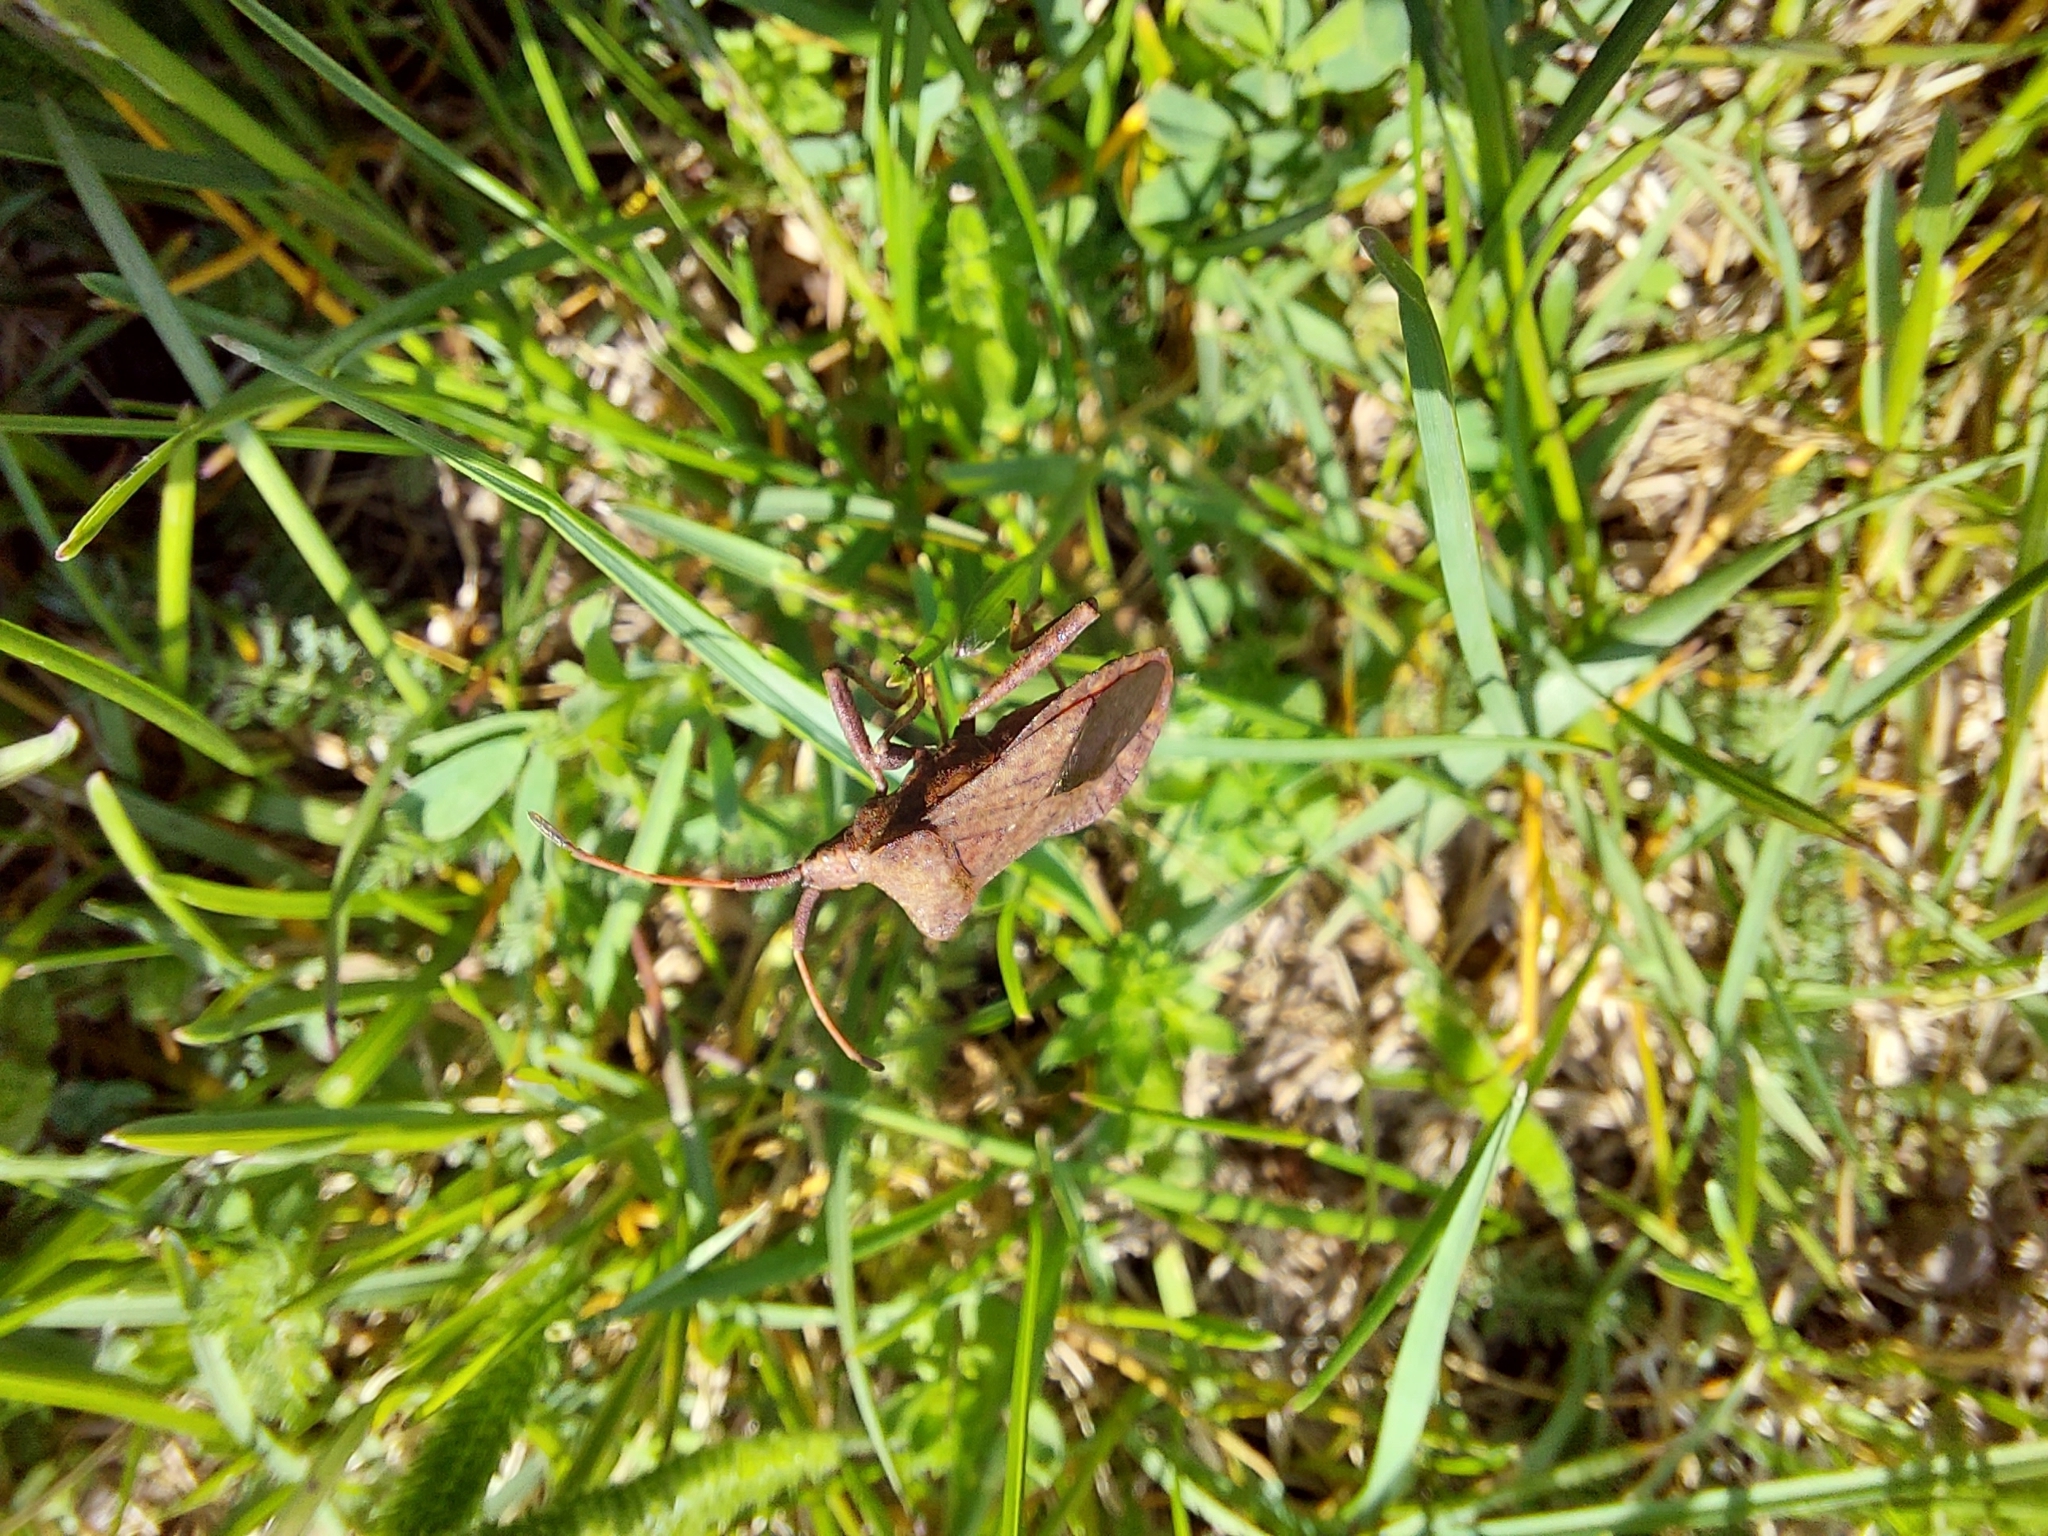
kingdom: Animalia
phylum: Arthropoda
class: Insecta
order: Hemiptera
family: Coreidae
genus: Coreus
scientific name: Coreus marginatus
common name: Dock bug
